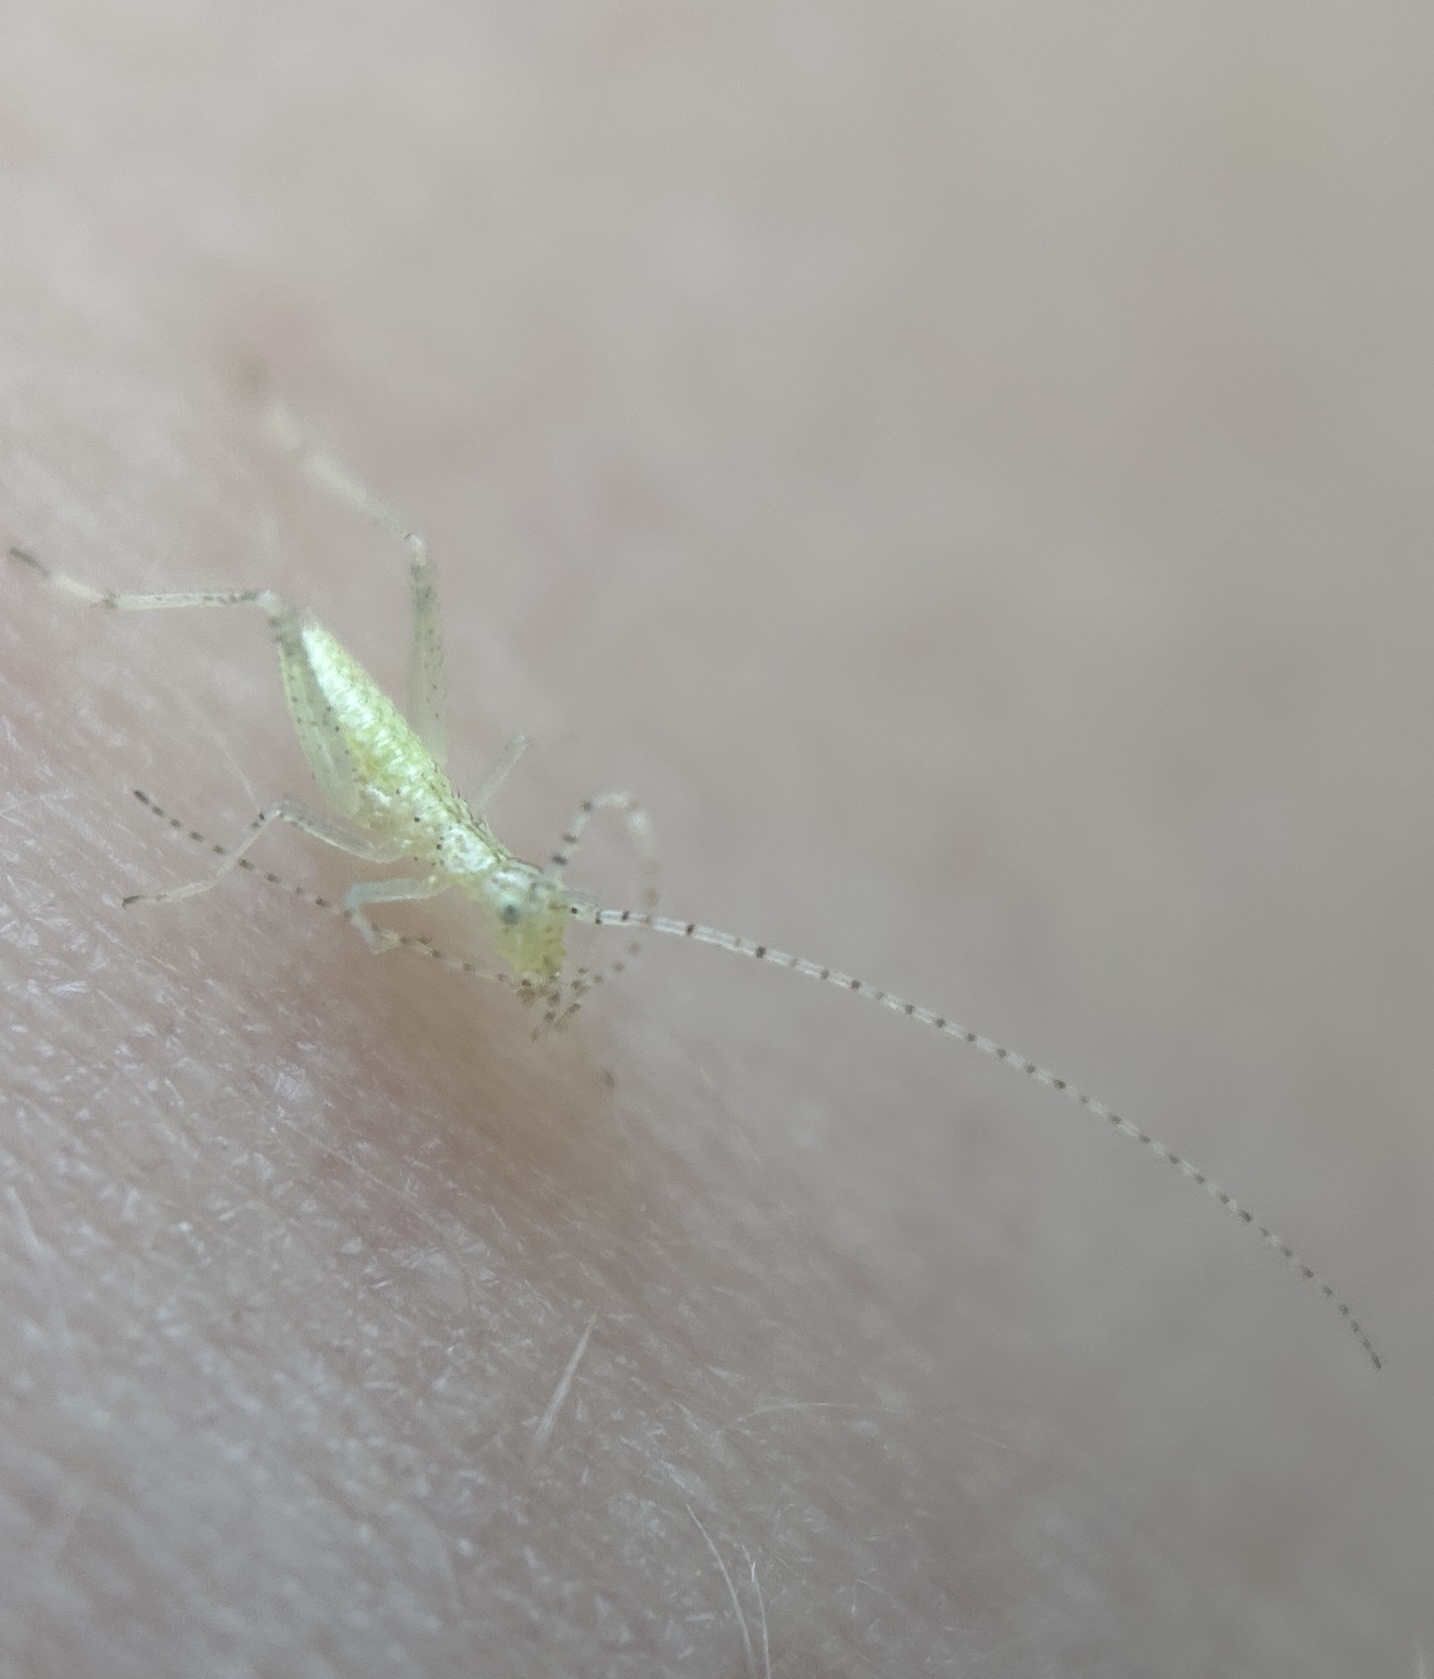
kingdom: Animalia
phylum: Arthropoda
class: Insecta
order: Orthoptera
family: Gryllidae
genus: Oecanthus
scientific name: Oecanthus fultoni
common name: Snowy tree cricket
